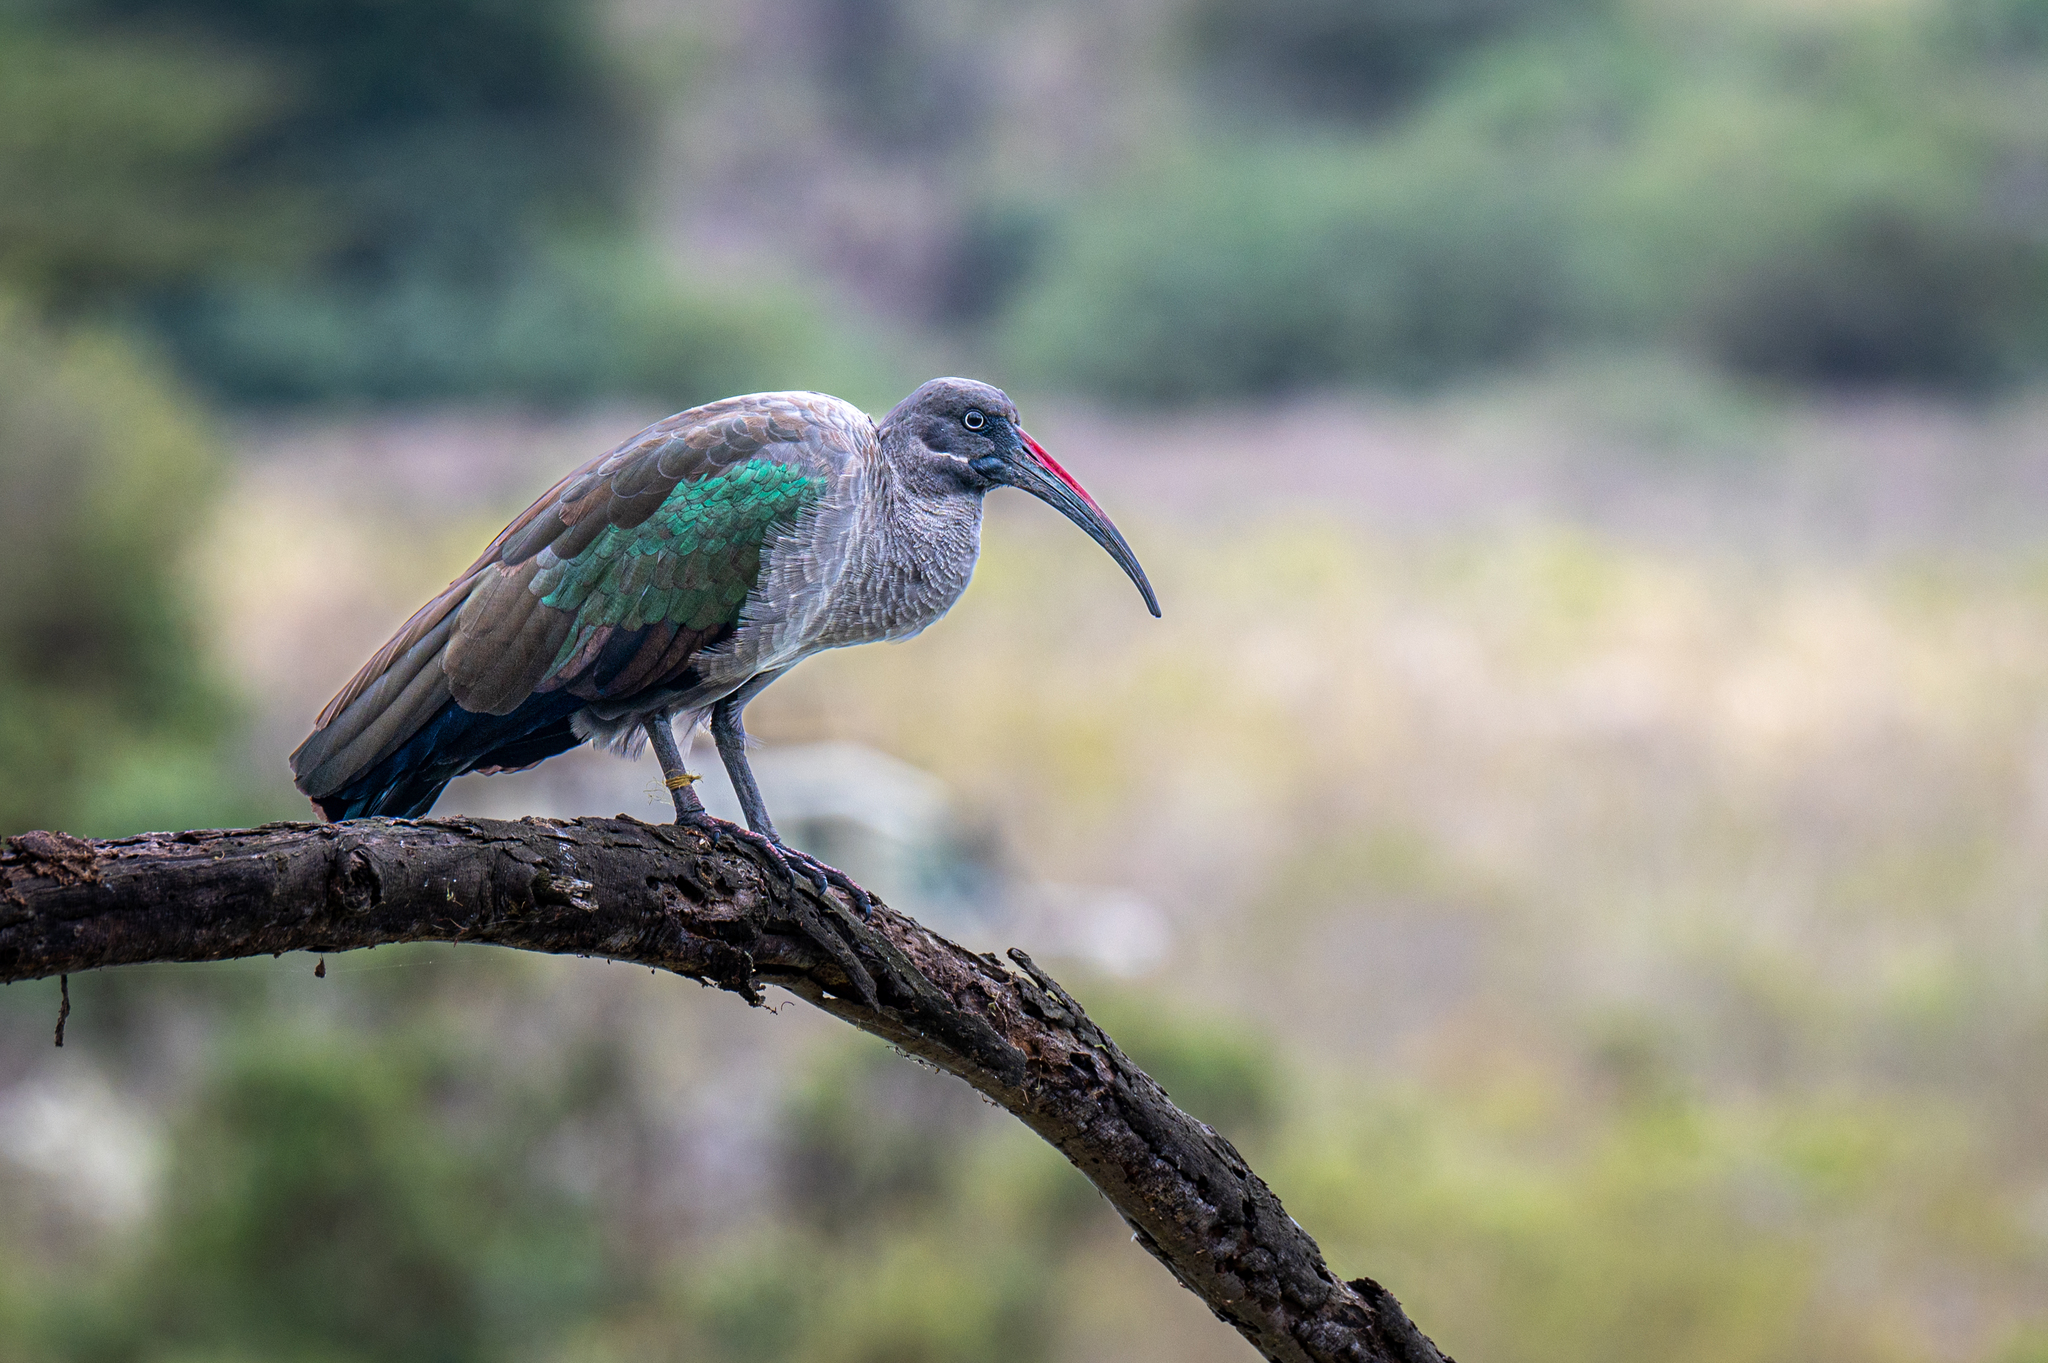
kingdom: Animalia
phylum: Chordata
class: Aves
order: Pelecaniformes
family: Threskiornithidae
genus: Bostrychia
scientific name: Bostrychia hagedash
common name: Hadada ibis
